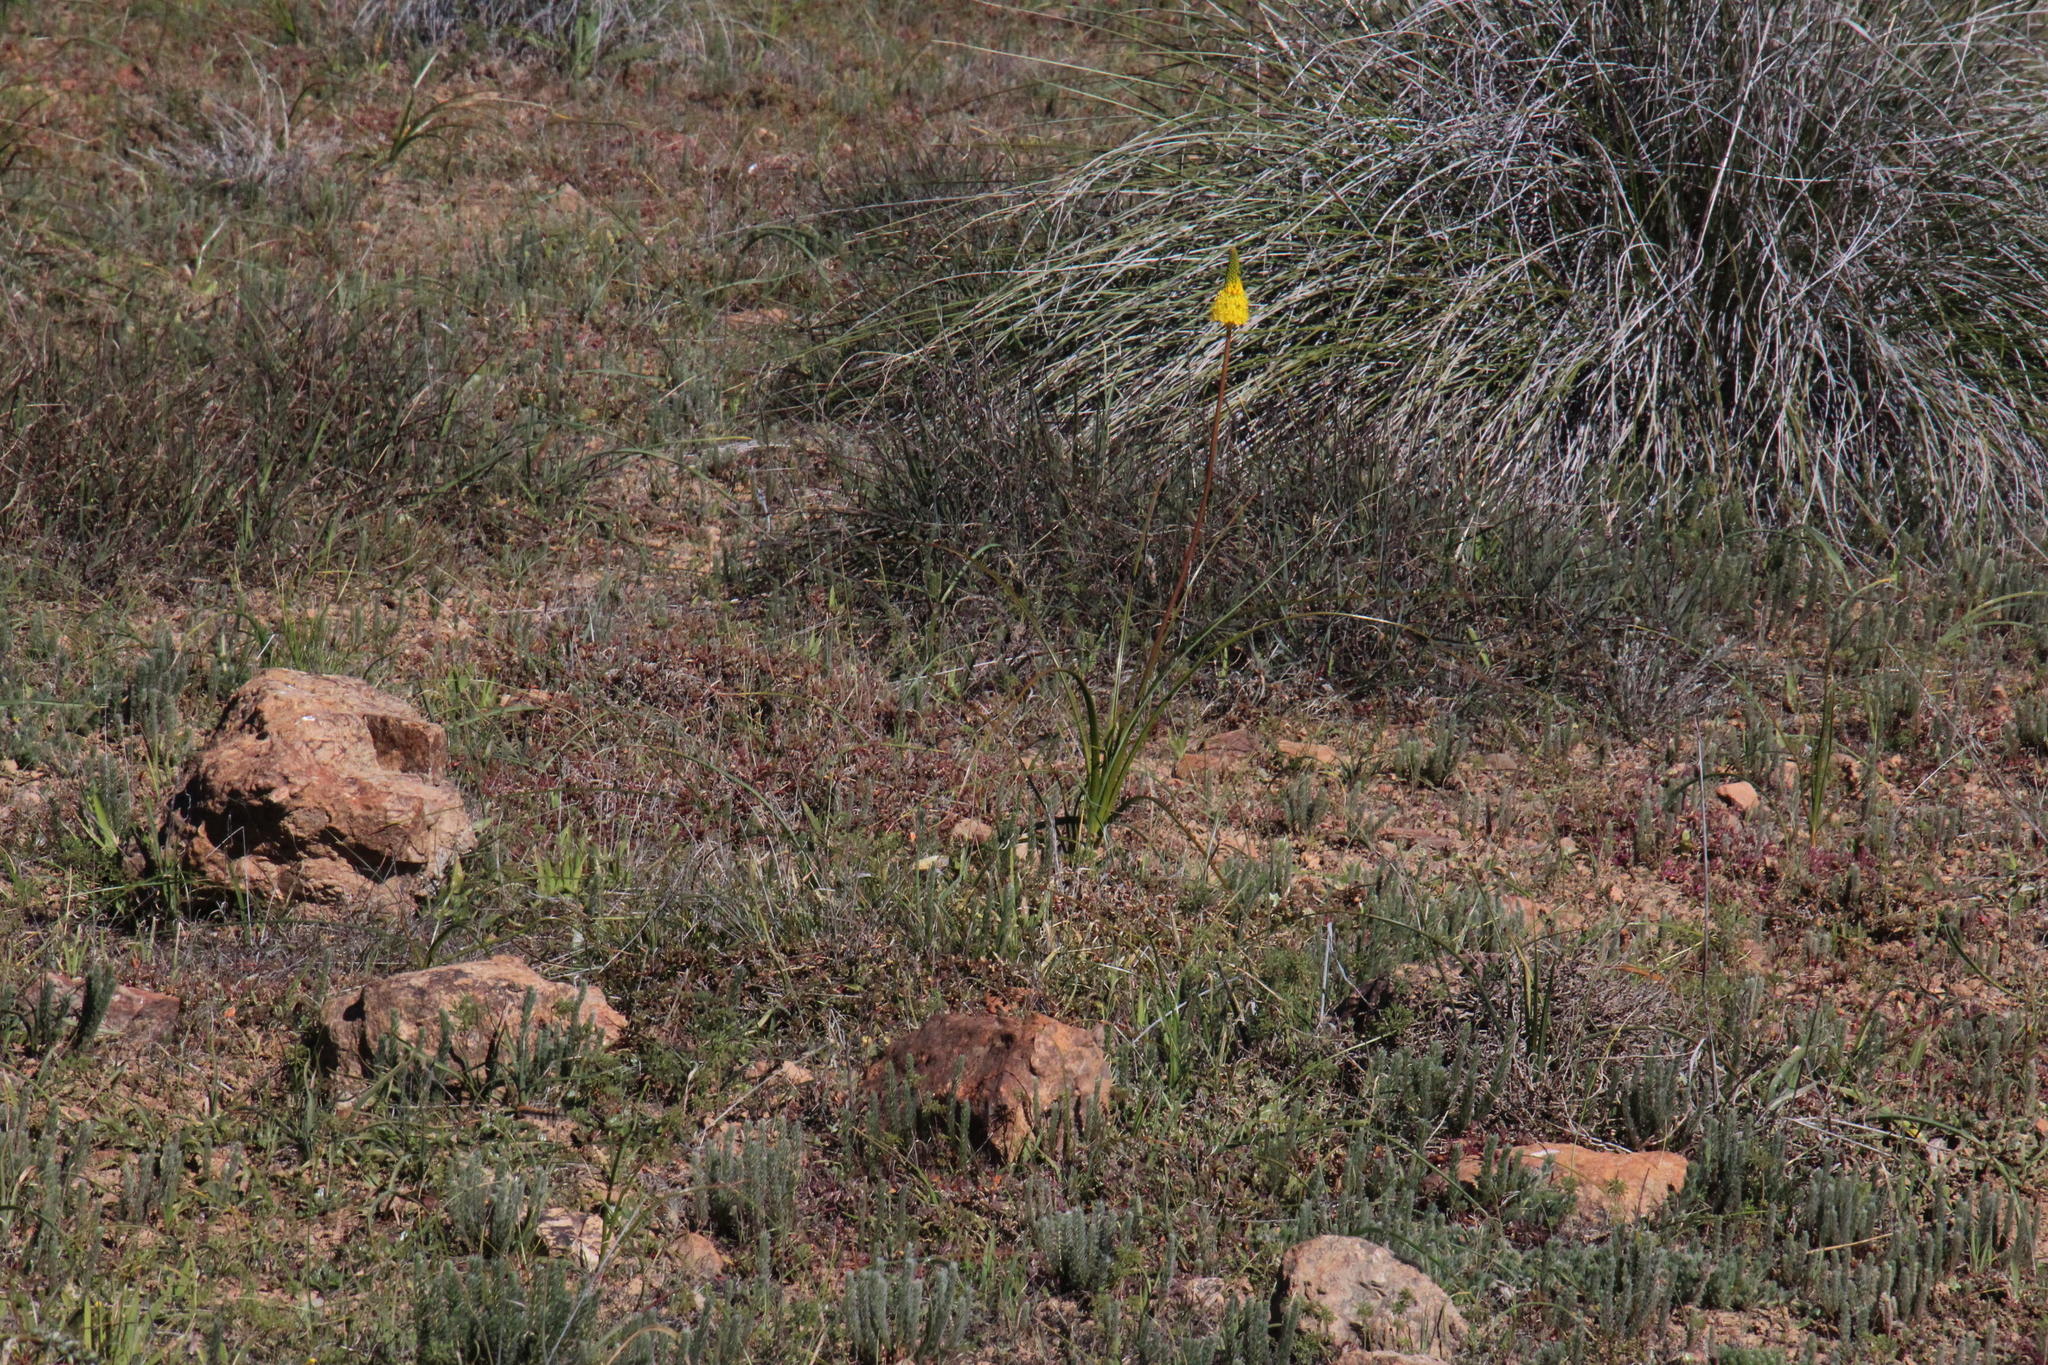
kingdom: Plantae
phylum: Tracheophyta
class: Liliopsida
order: Asparagales
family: Asphodelaceae
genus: Bulbinella
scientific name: Bulbinella latifolia
